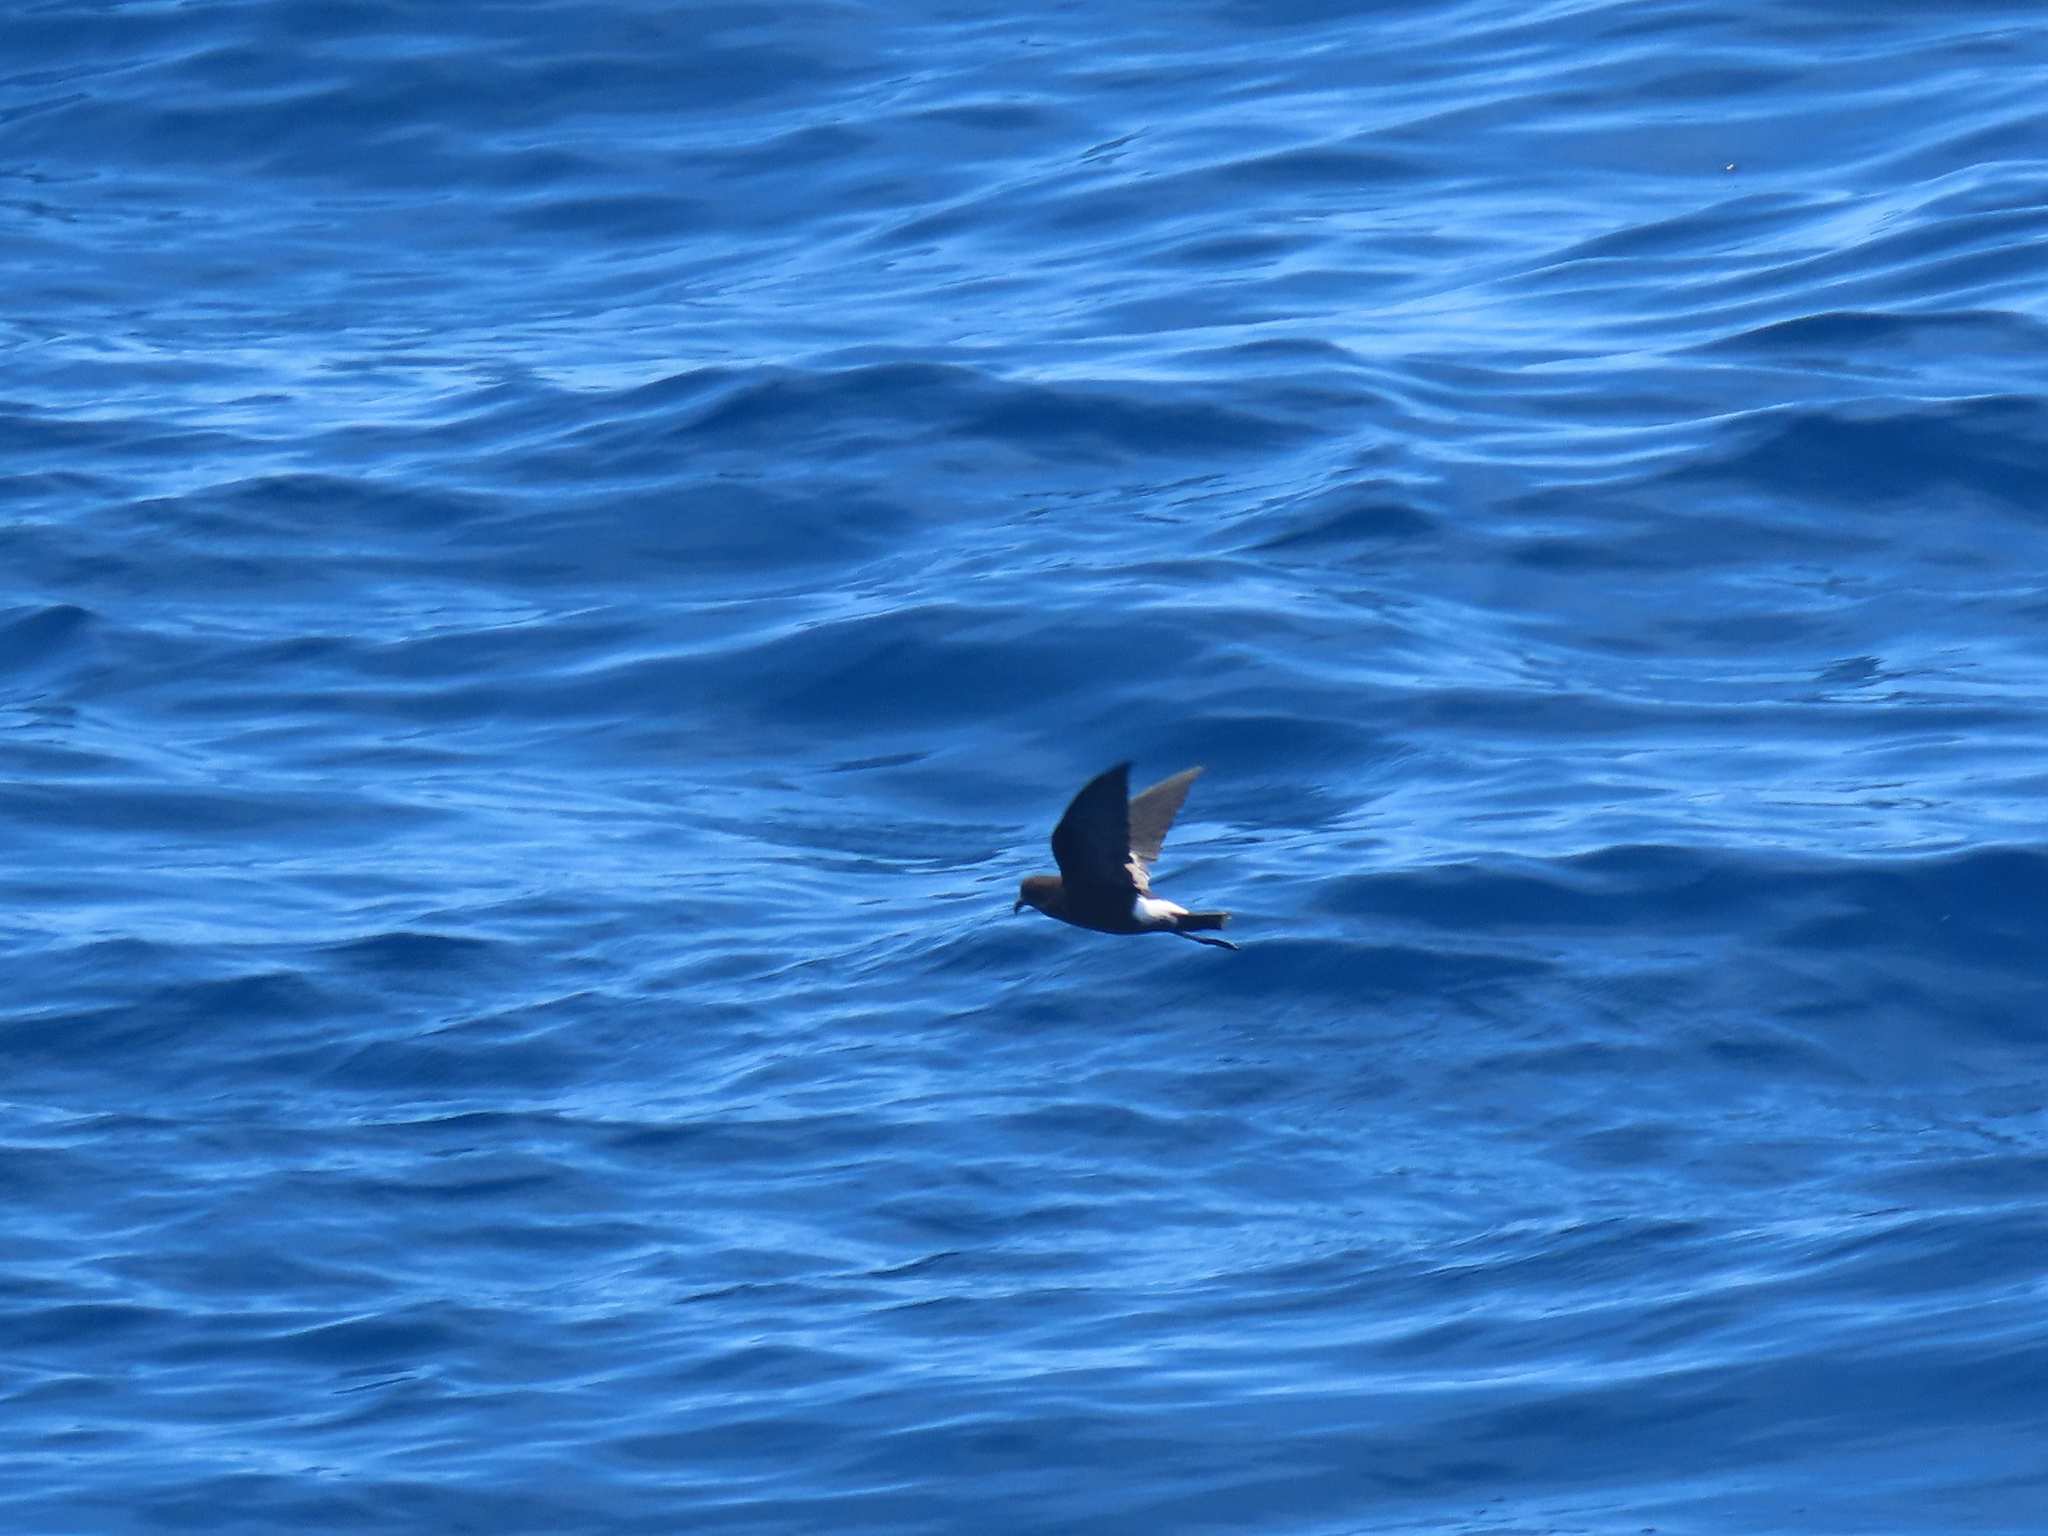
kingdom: Animalia
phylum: Chordata
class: Aves
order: Procellariiformes
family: Hydrobatidae
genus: Oceanites
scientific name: Oceanites oceanicus
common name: Wilson's storm petrel
